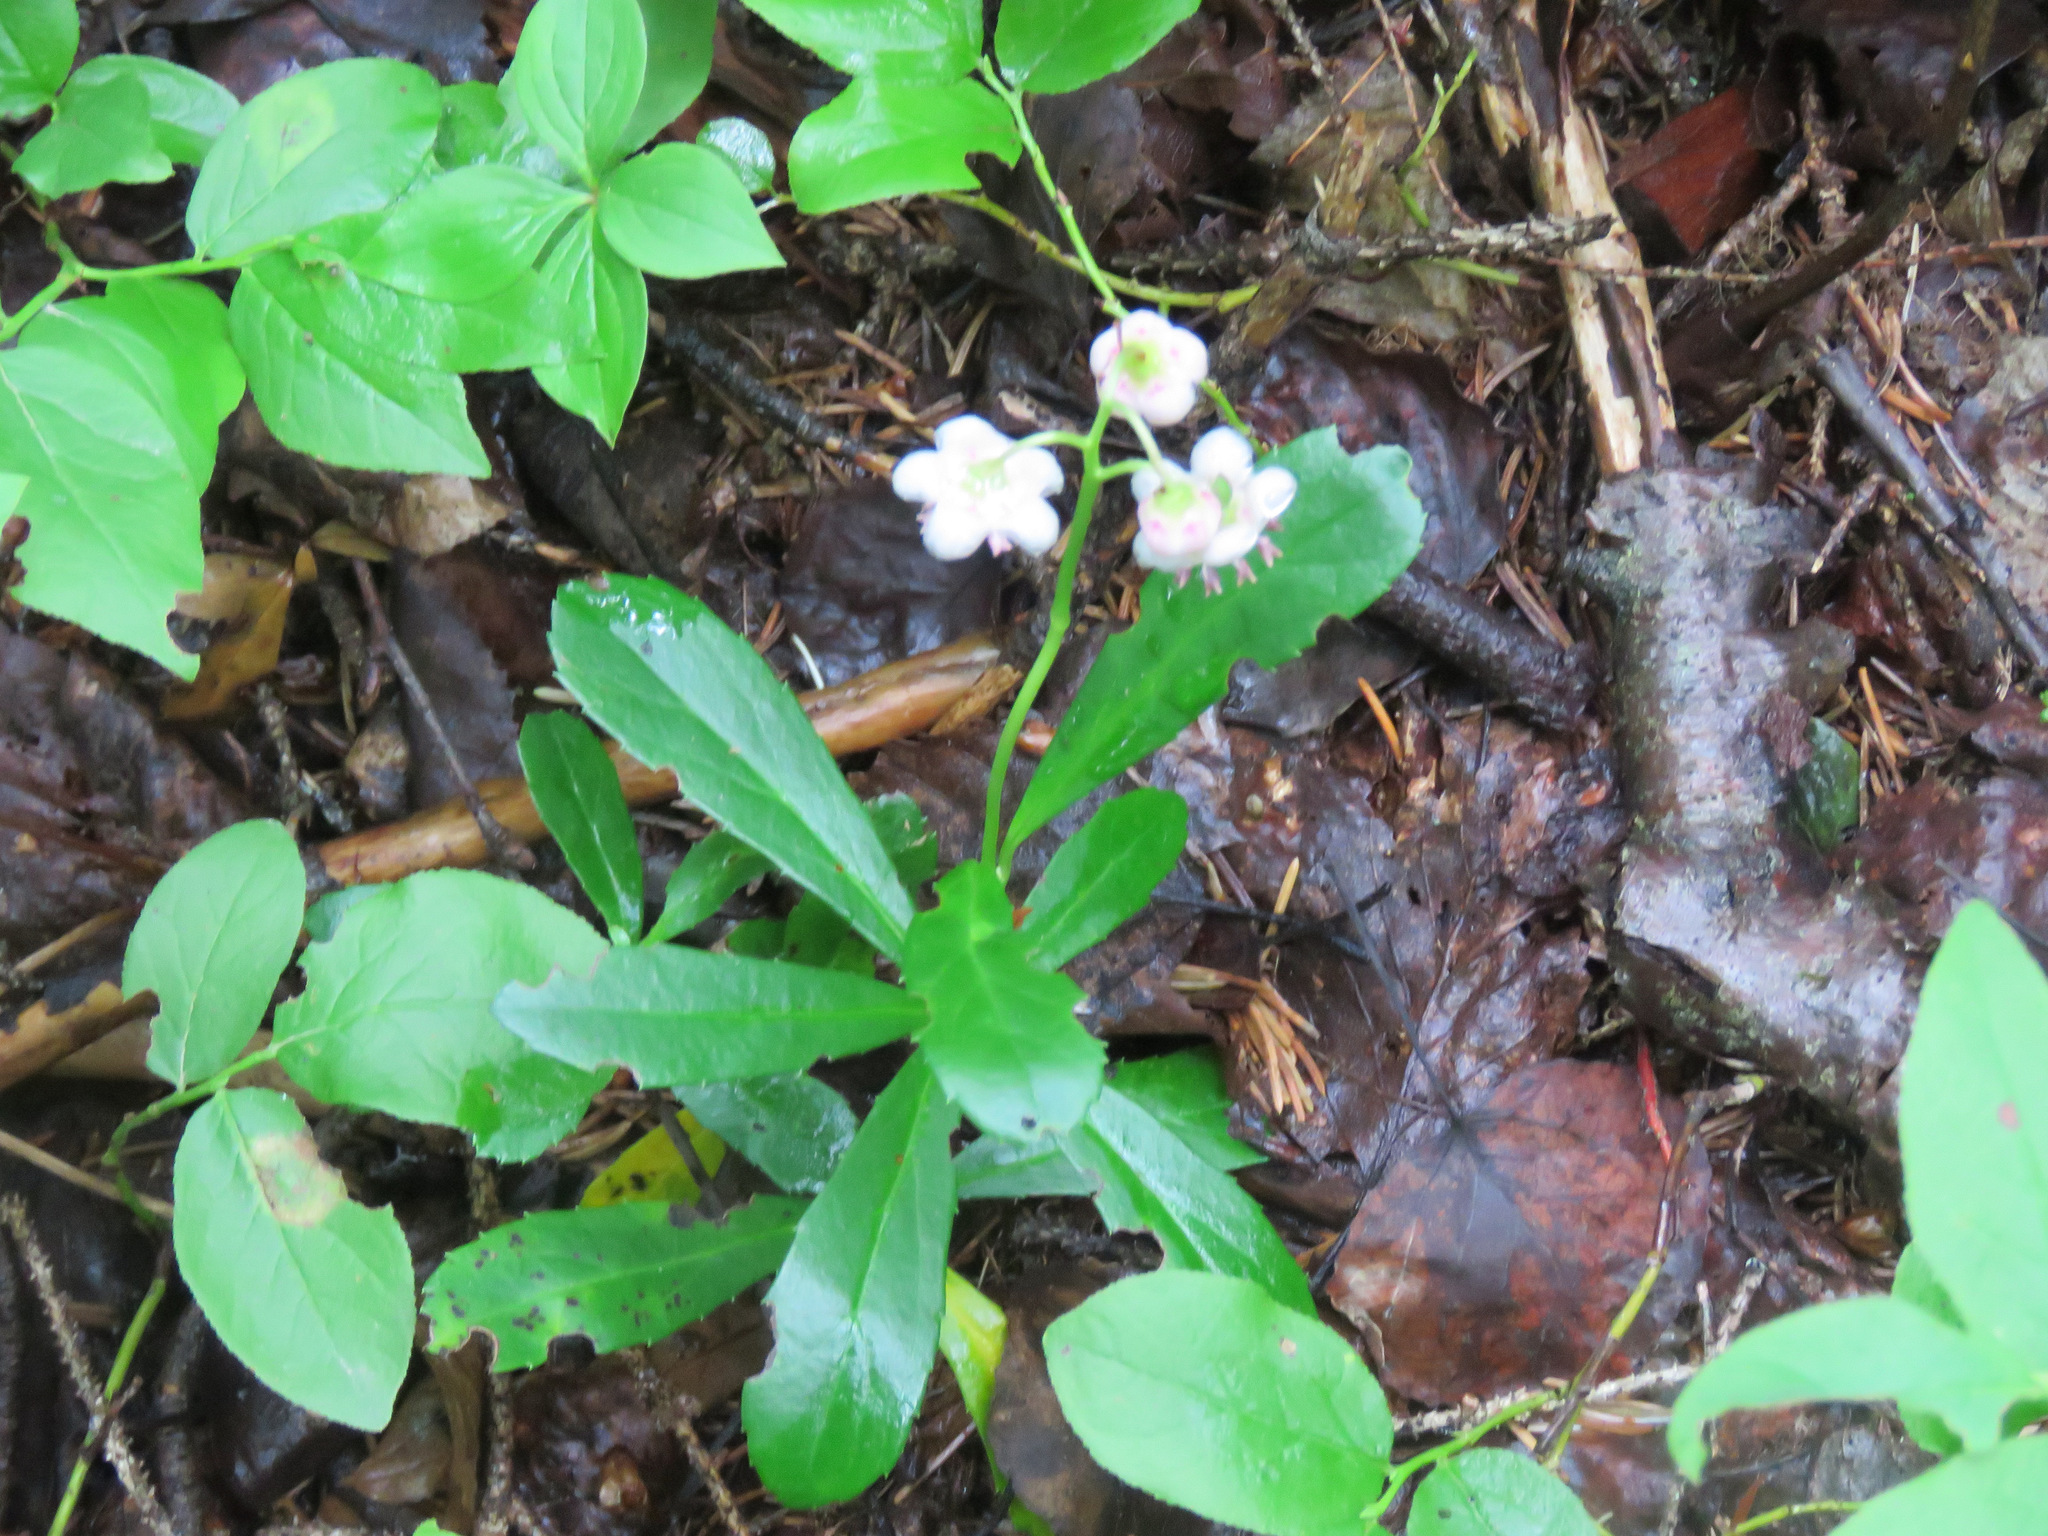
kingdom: Plantae
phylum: Tracheophyta
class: Magnoliopsida
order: Ericales
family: Ericaceae
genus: Chimaphila
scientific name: Chimaphila umbellata
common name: Pipsissewa
